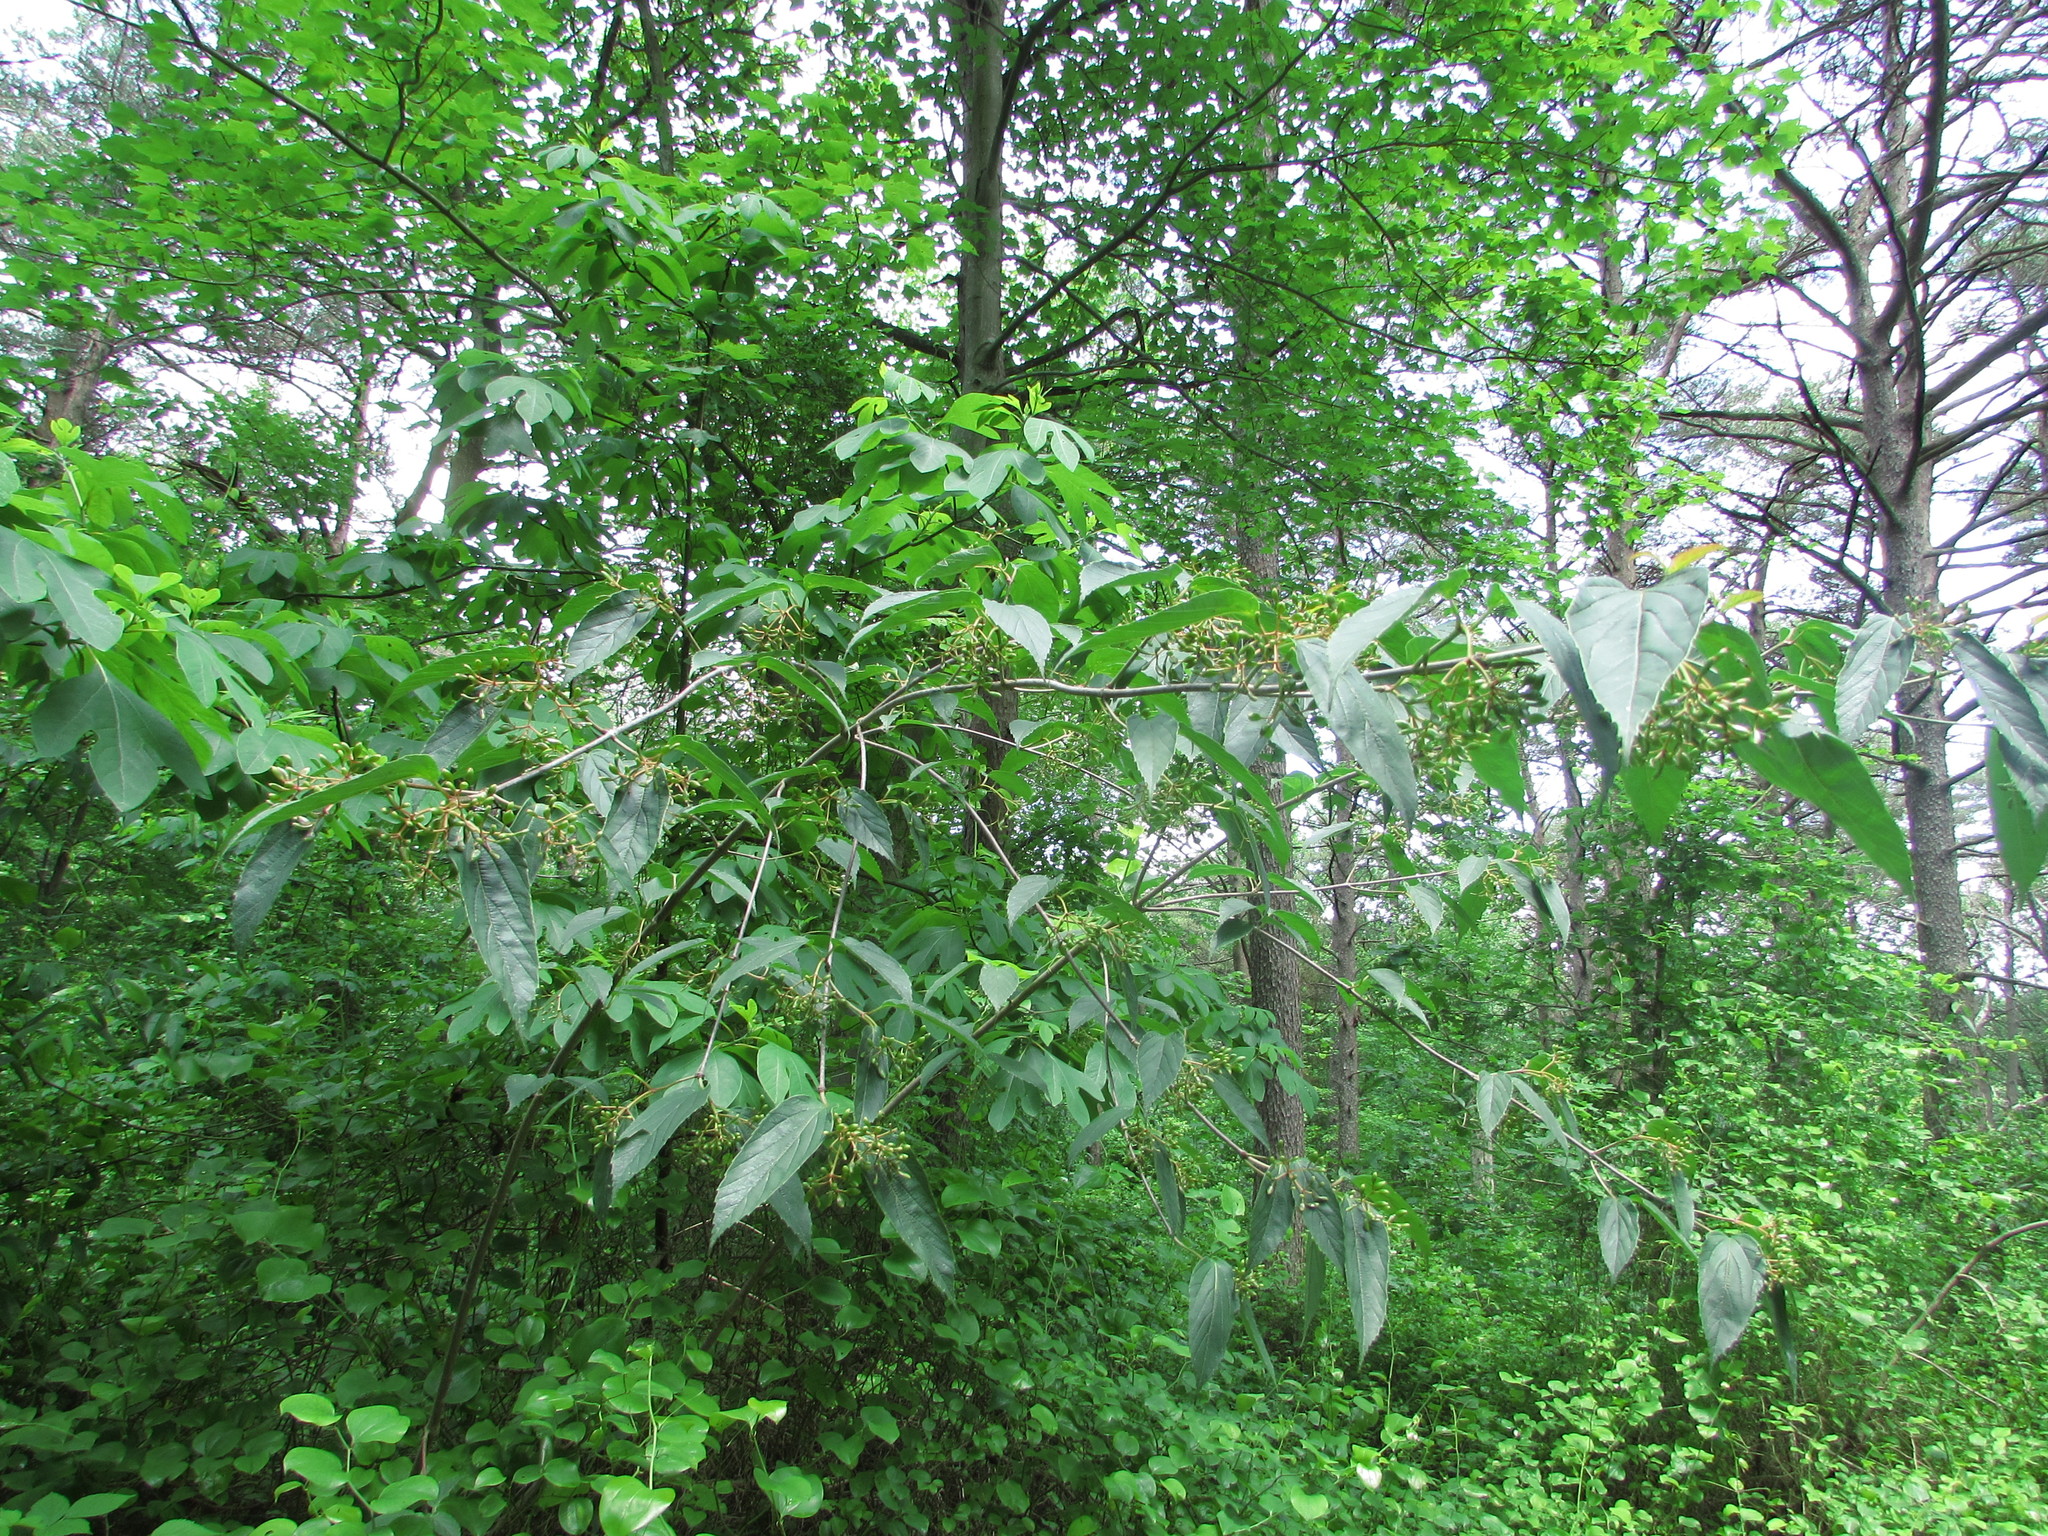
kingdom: Plantae
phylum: Tracheophyta
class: Magnoliopsida
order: Dipsacales
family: Viburnaceae
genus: Viburnum
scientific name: Viburnum setigerum
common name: Tea viburnum
